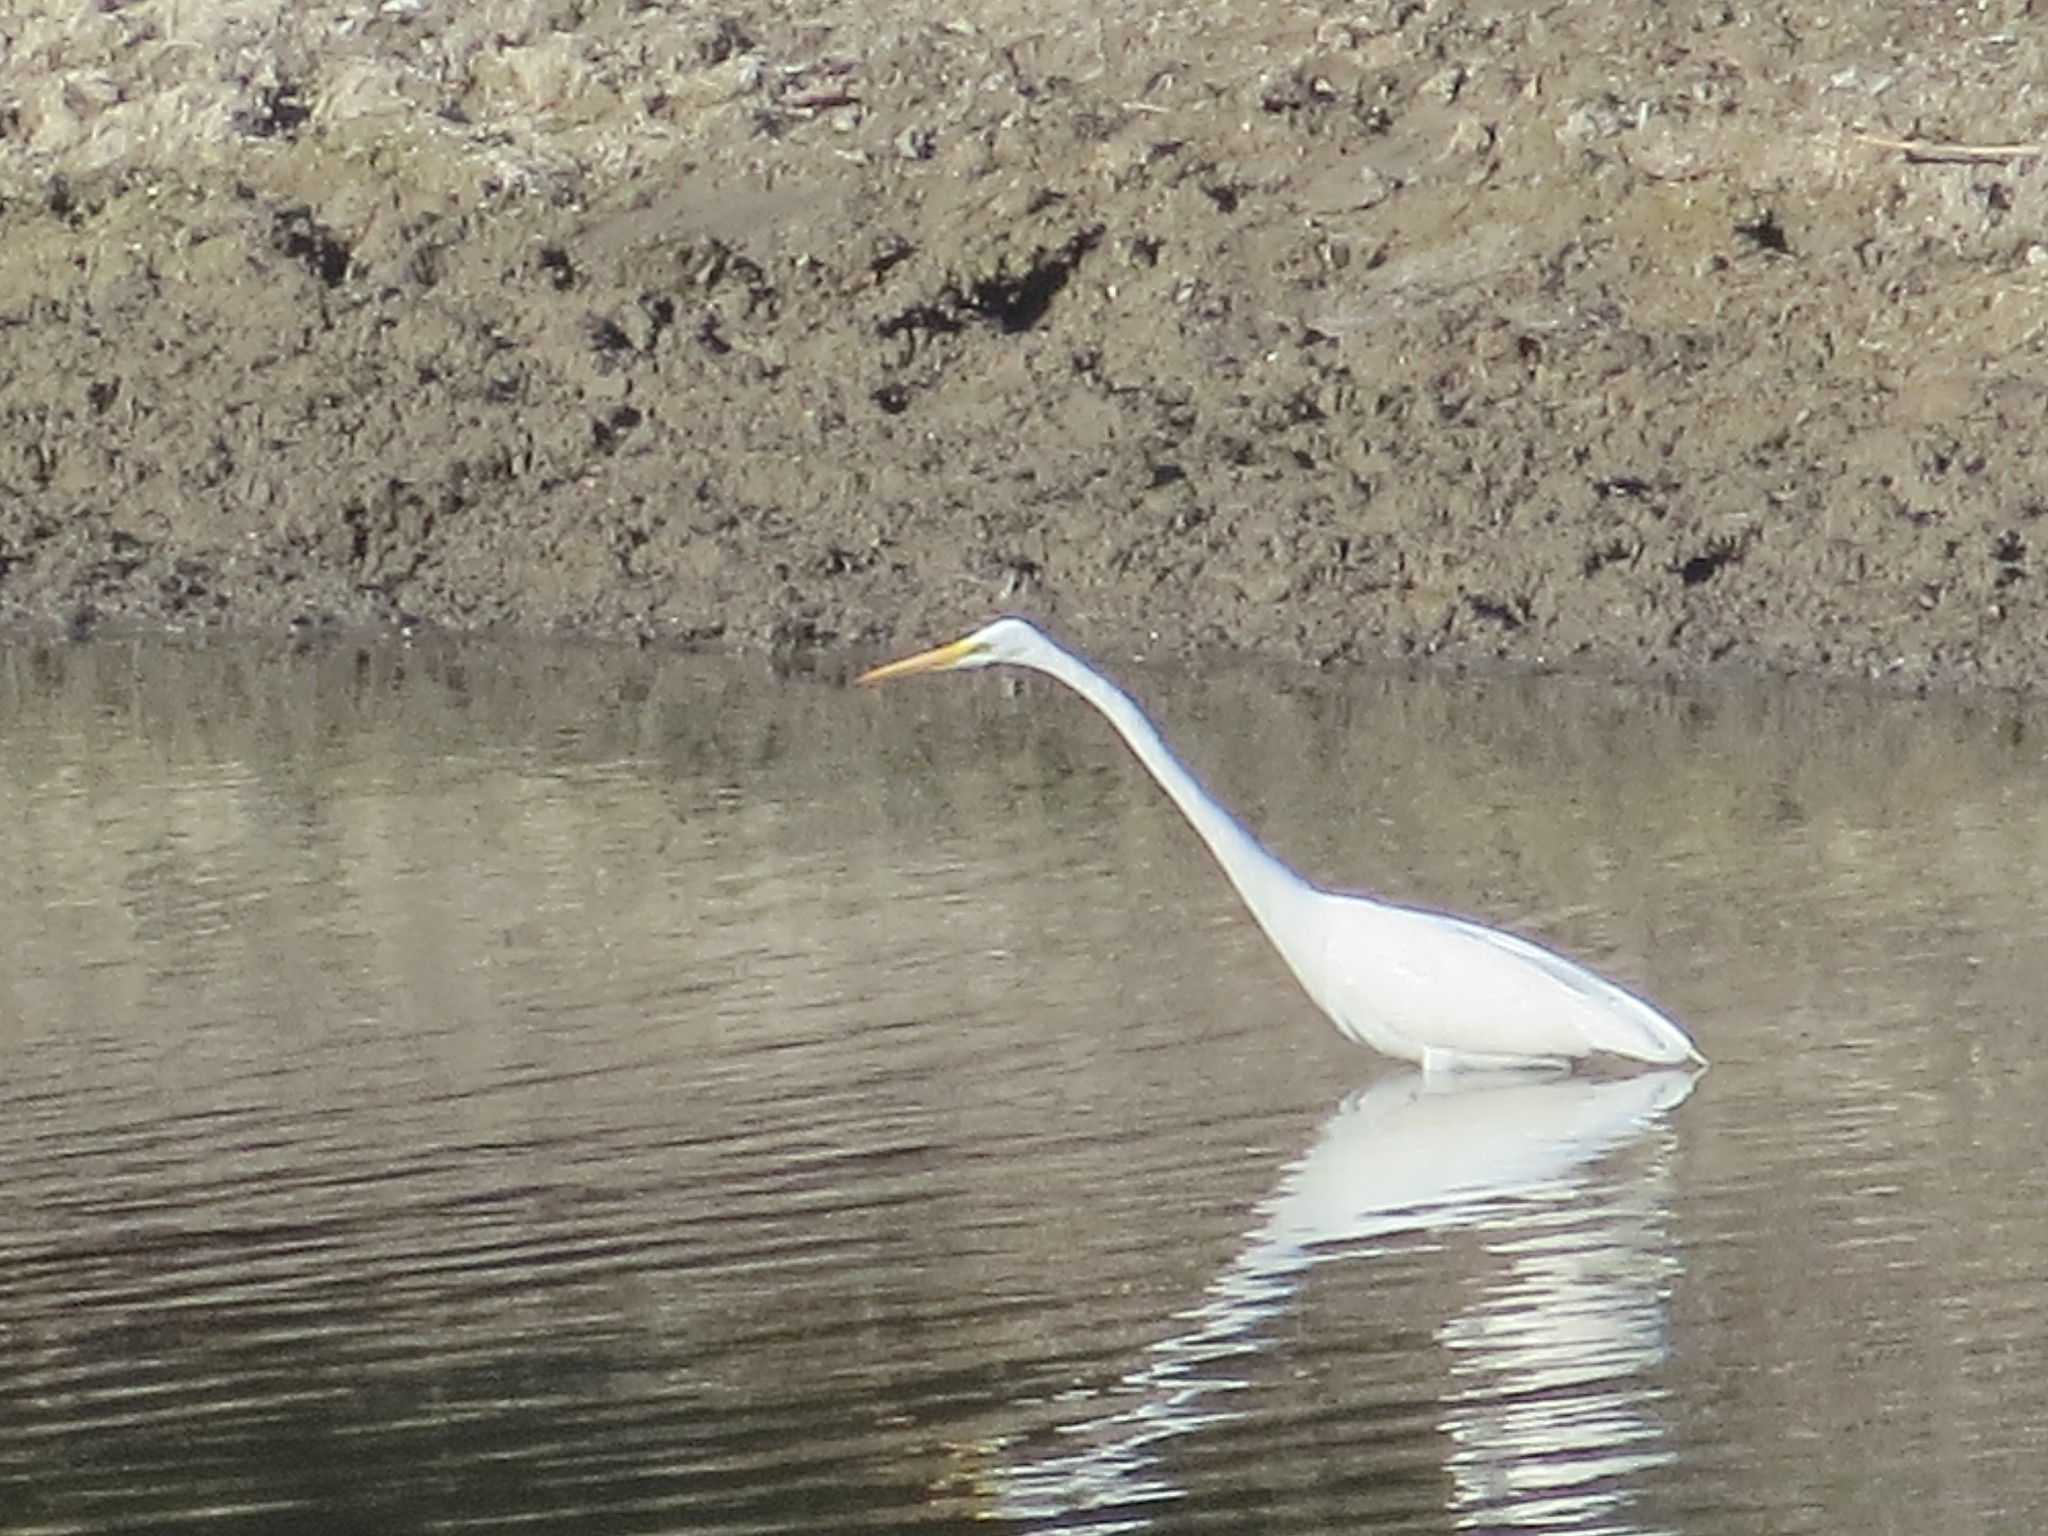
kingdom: Animalia
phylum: Chordata
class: Aves
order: Pelecaniformes
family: Ardeidae
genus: Ardea
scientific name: Ardea alba
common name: Great egret
